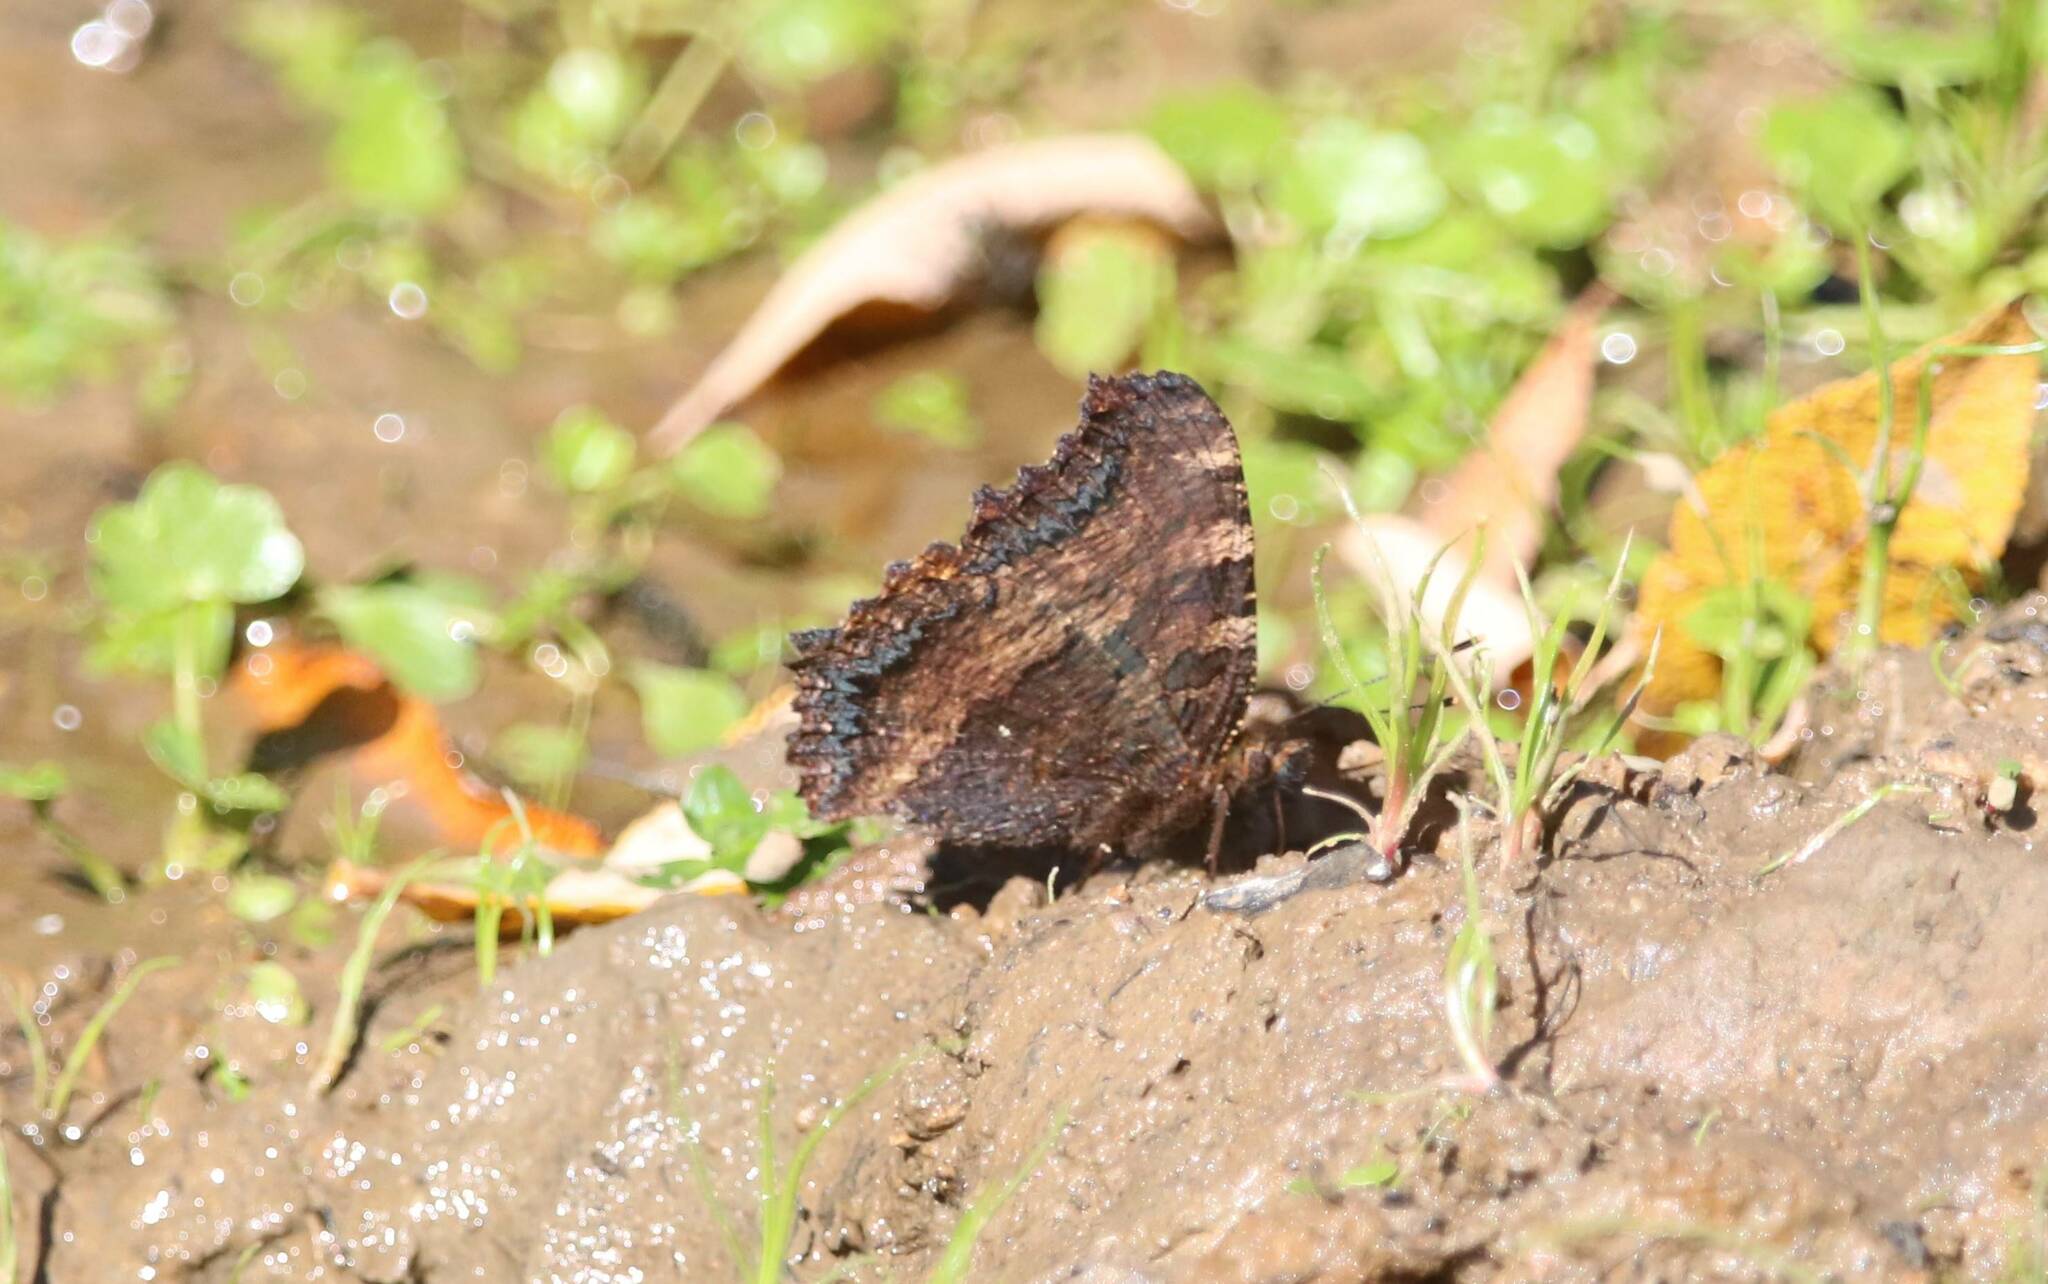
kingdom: Animalia
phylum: Arthropoda
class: Insecta
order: Lepidoptera
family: Nymphalidae
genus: Nymphalis
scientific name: Nymphalis polychloros
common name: Large tortoiseshell
